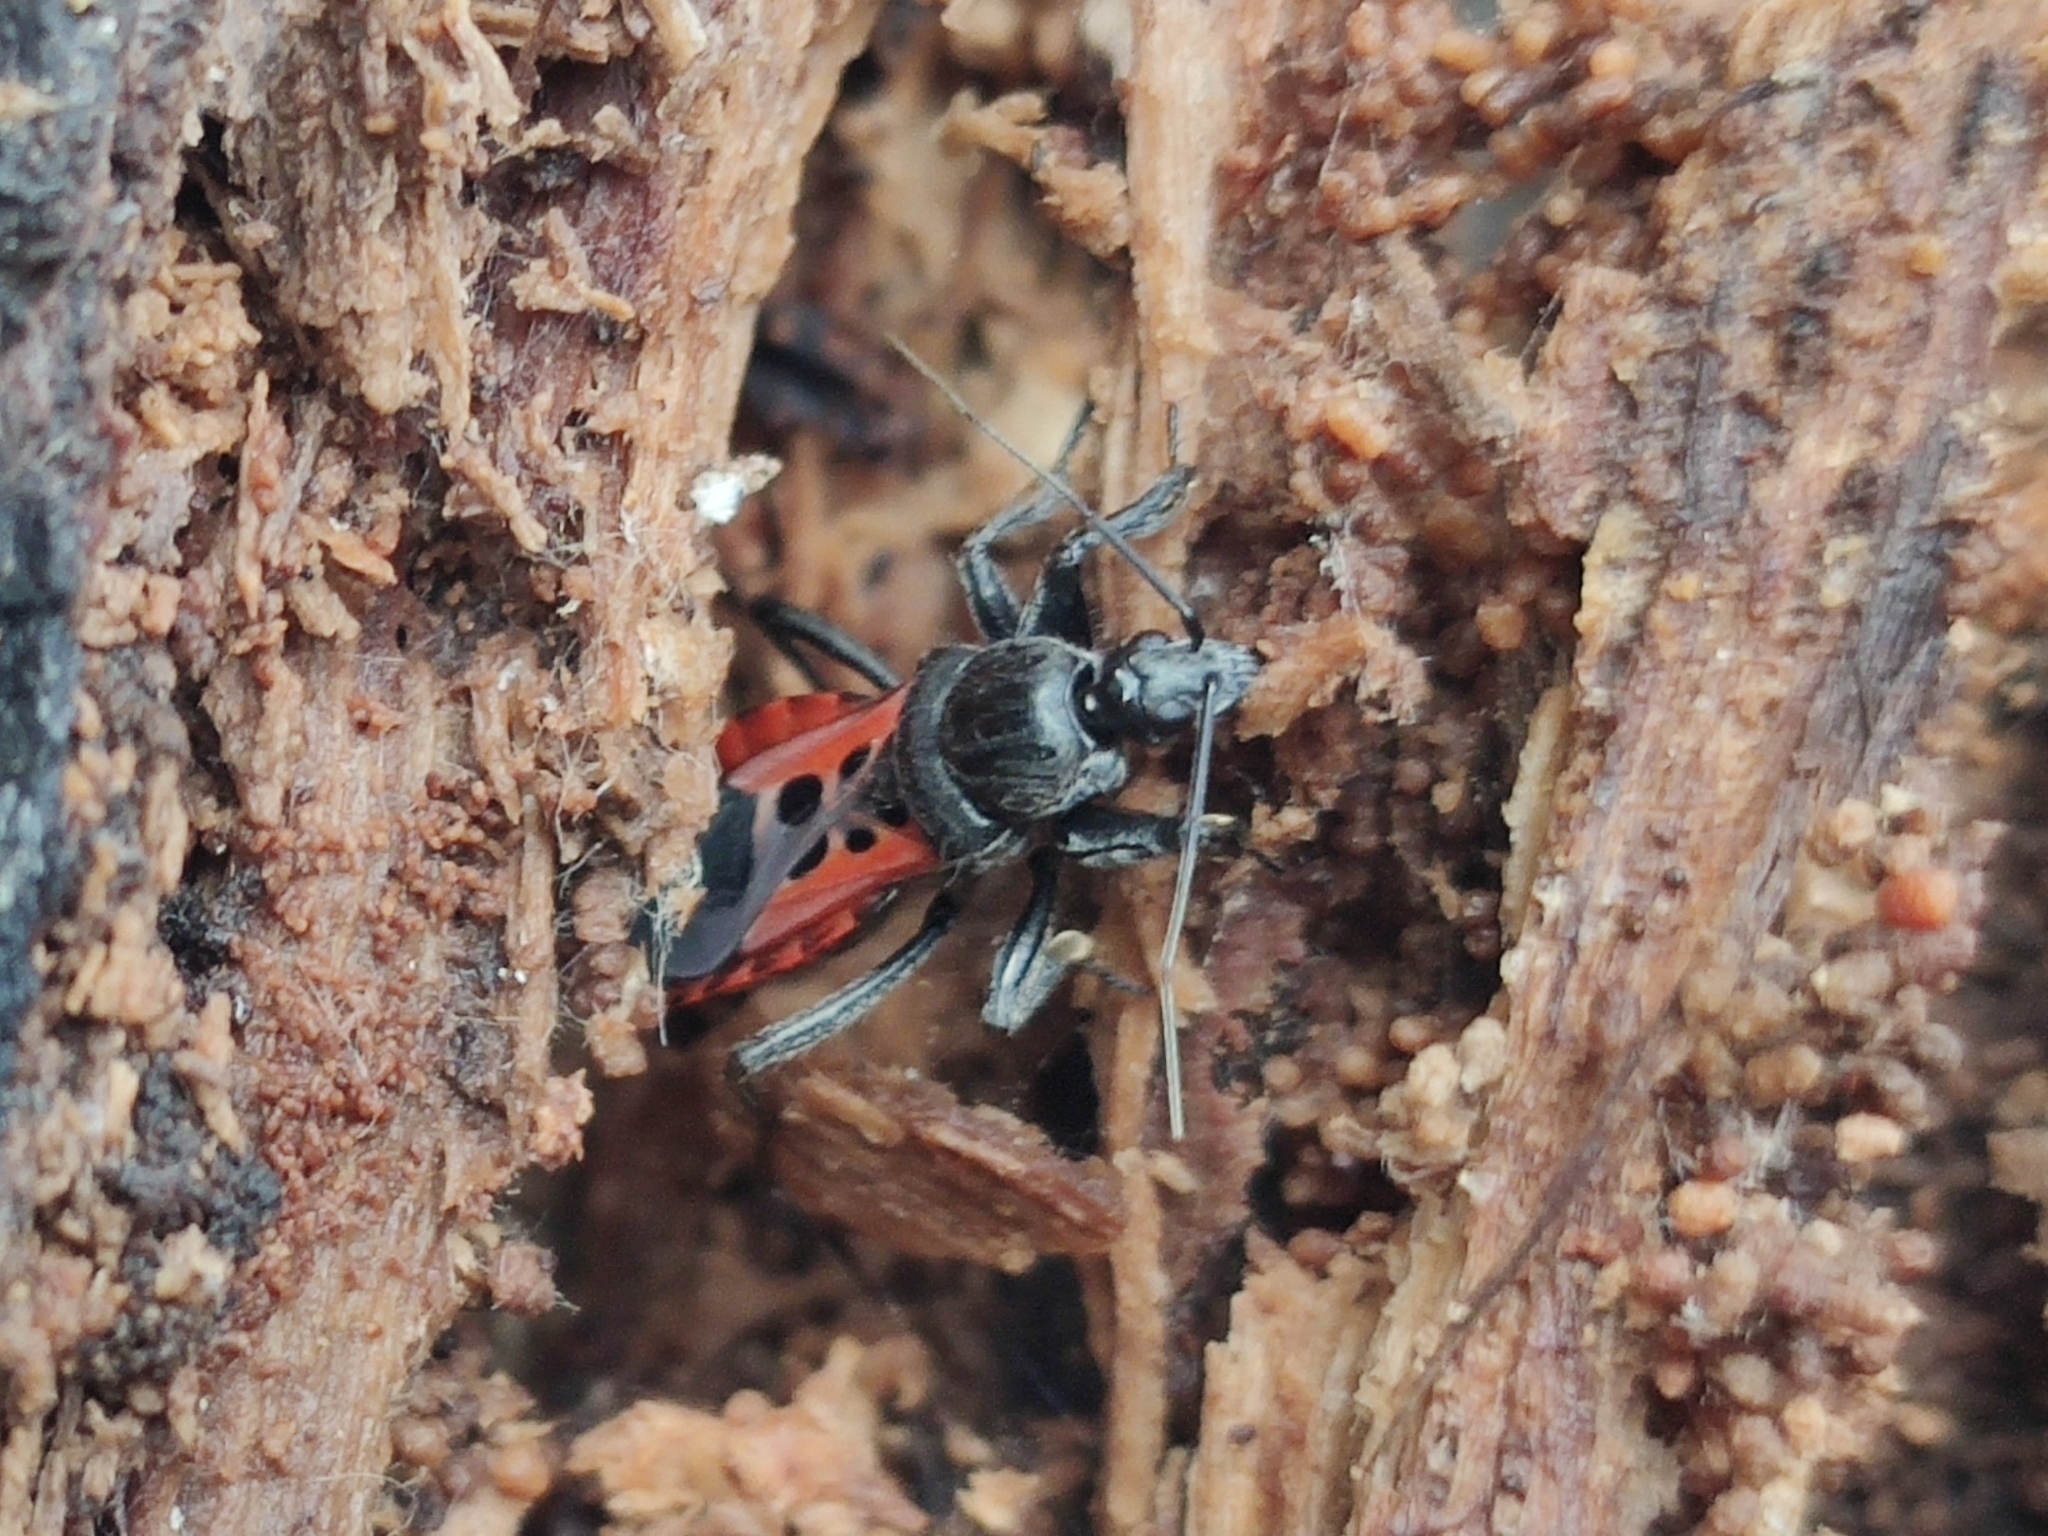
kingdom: Animalia
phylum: Arthropoda
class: Insecta
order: Hemiptera
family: Reduviidae
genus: Peirates
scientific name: Peirates stridulus
